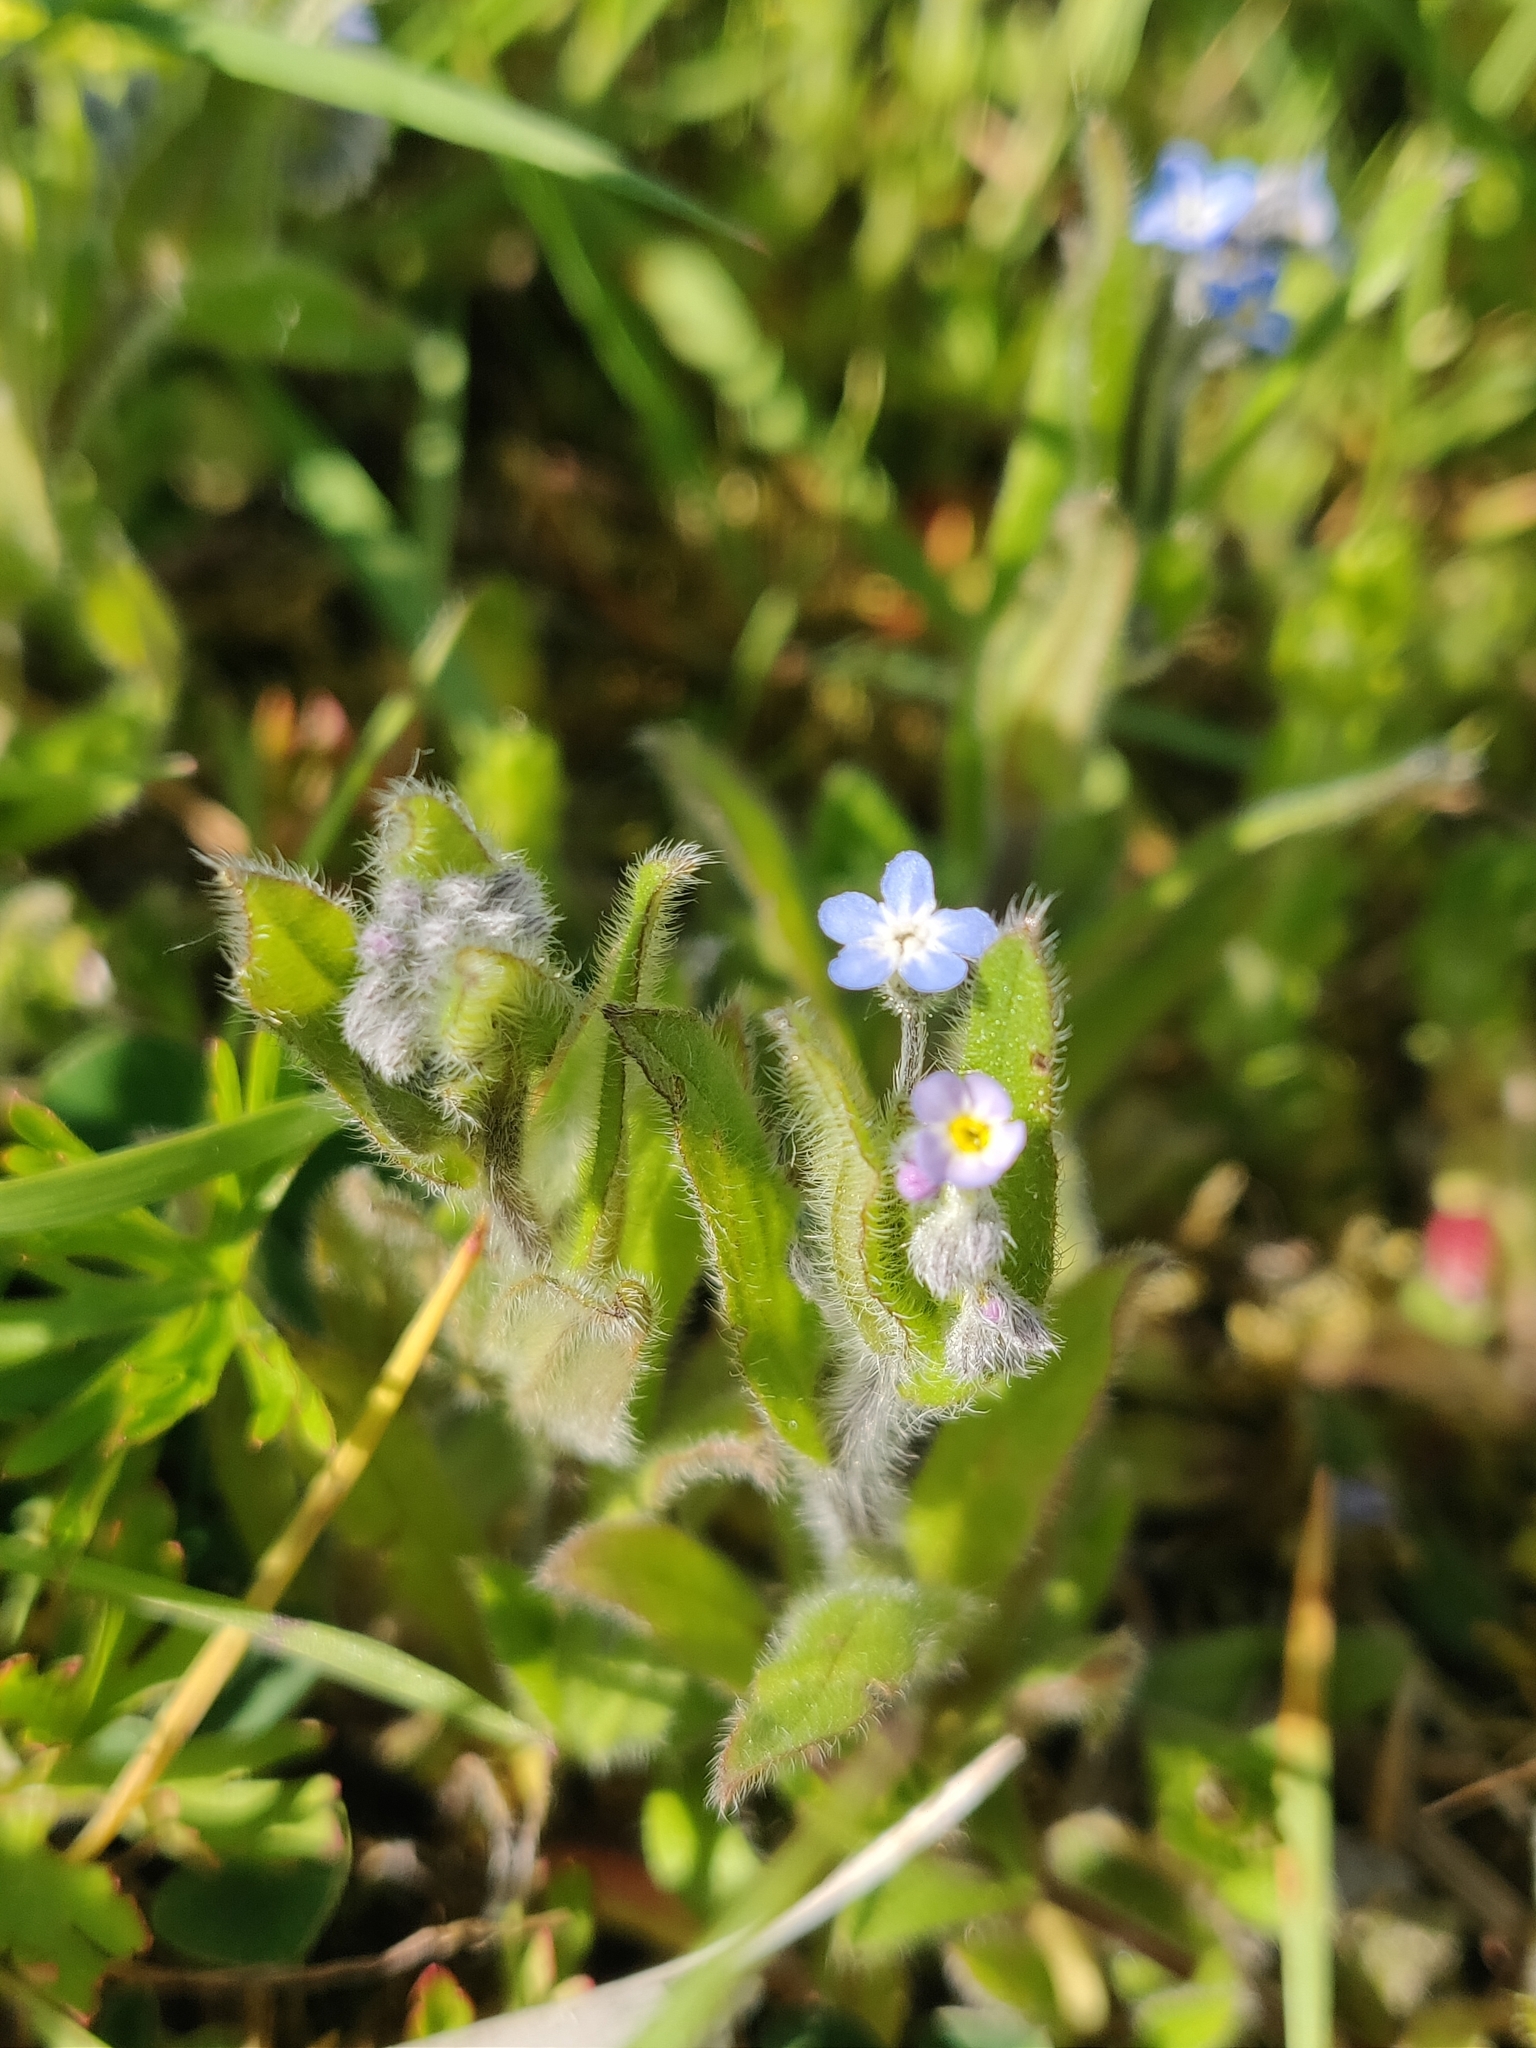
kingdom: Plantae
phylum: Tracheophyta
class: Magnoliopsida
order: Boraginales
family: Boraginaceae
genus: Myosotis
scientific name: Myosotis arvensis
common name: Field forget-me-not
